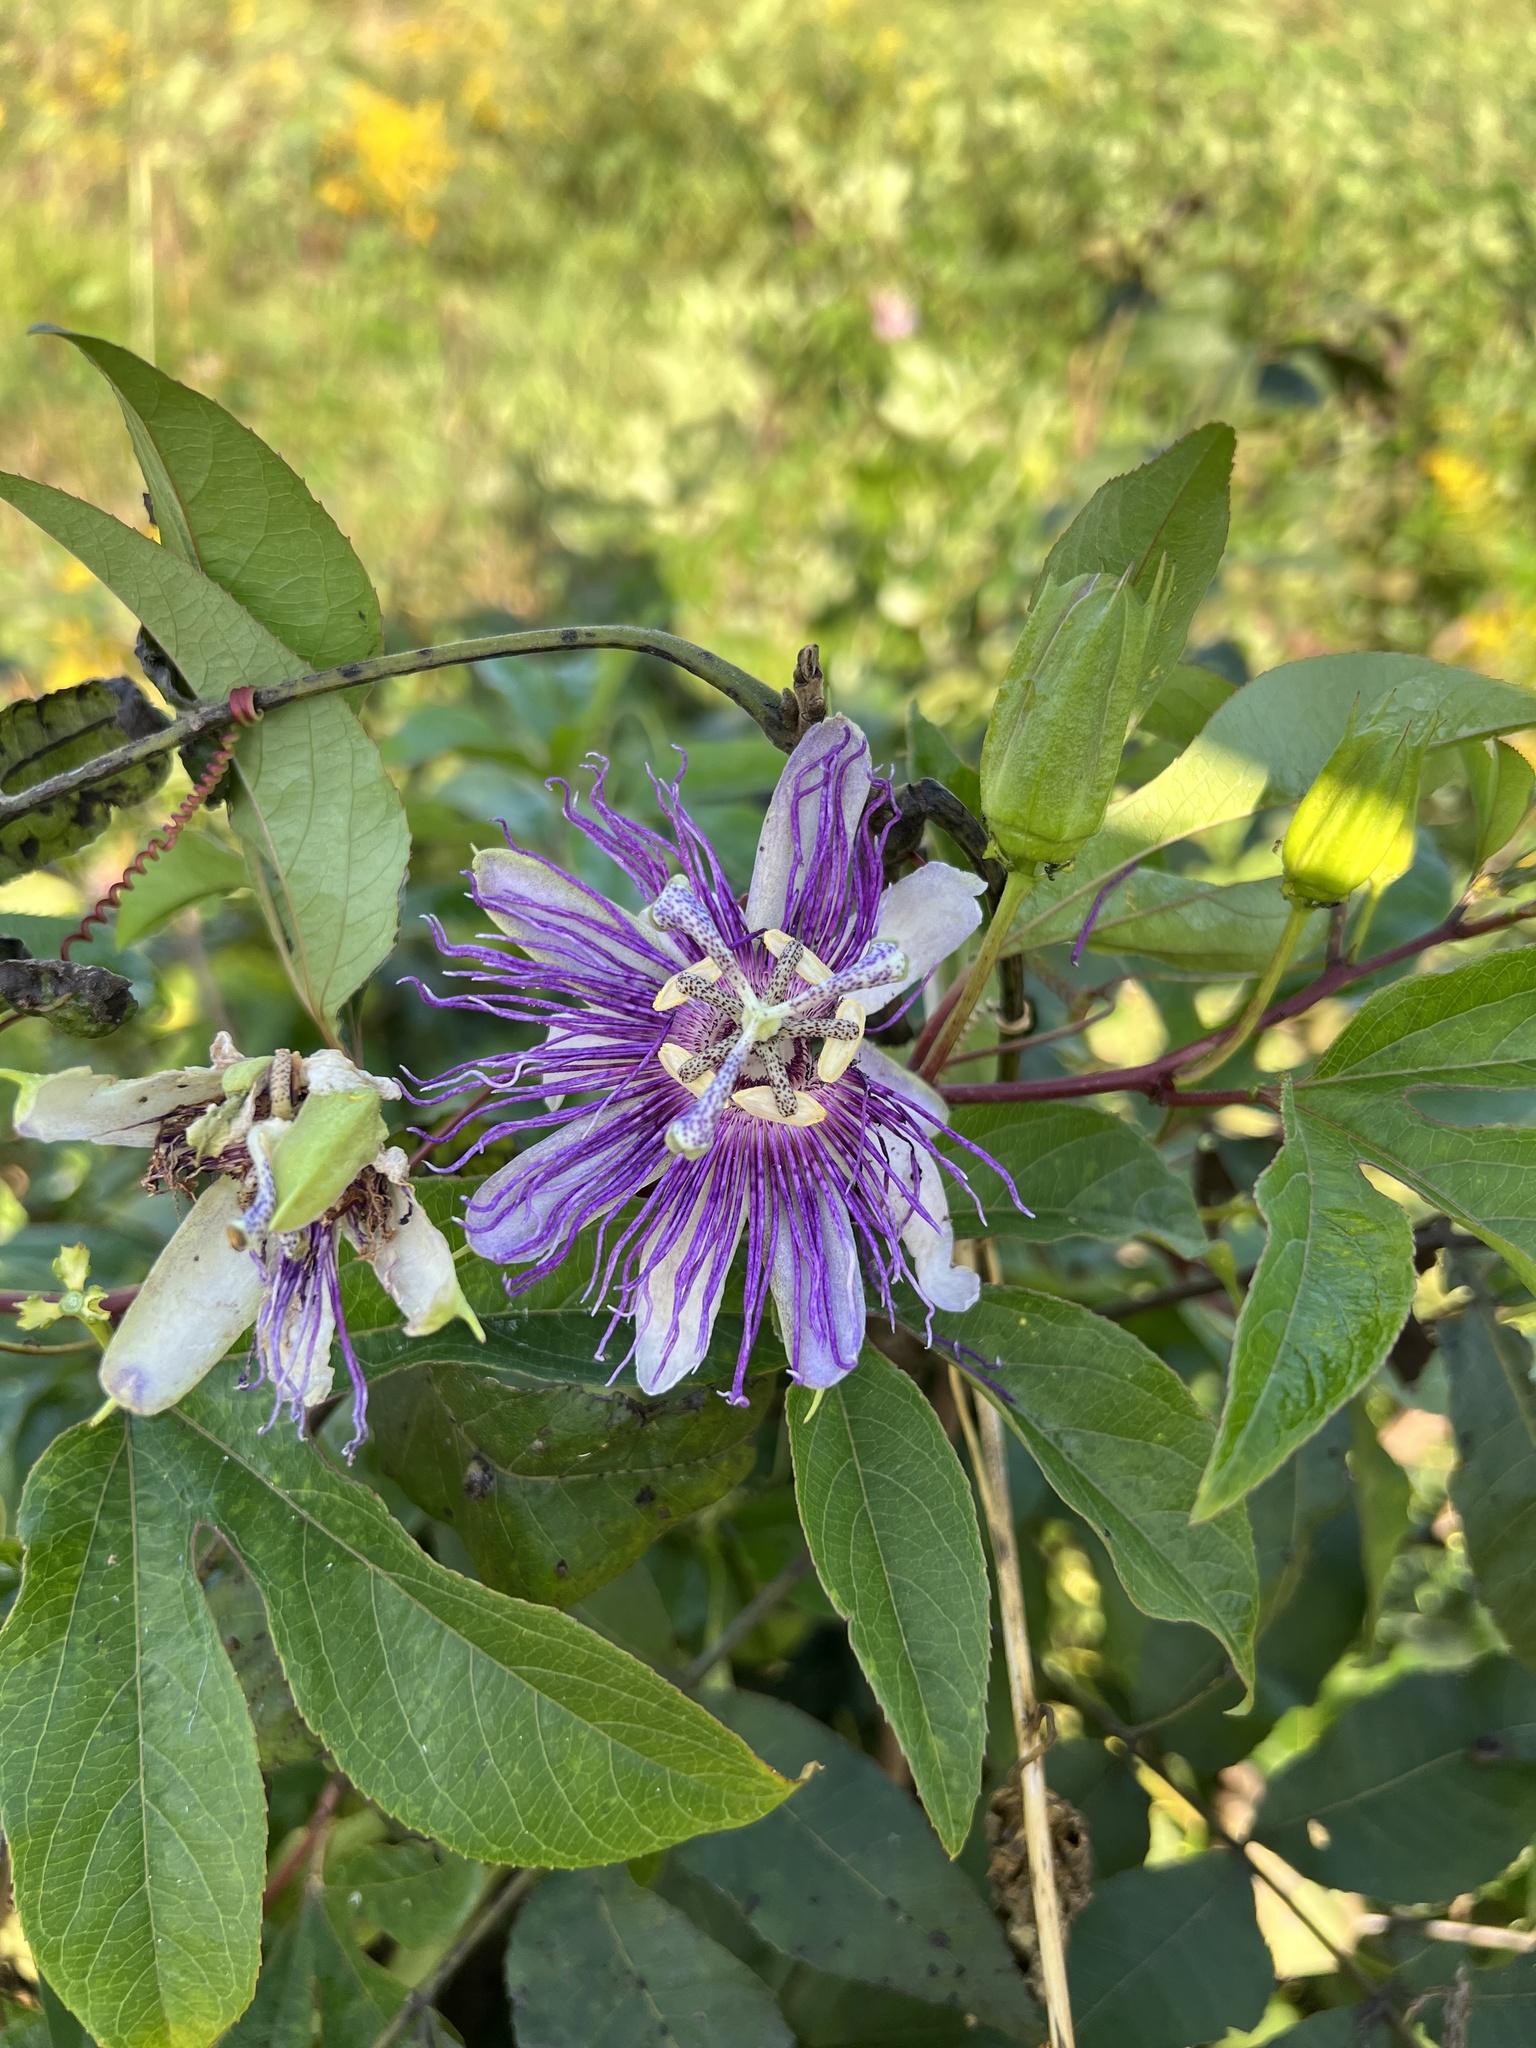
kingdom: Plantae
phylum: Tracheophyta
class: Magnoliopsida
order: Malpighiales
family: Passifloraceae
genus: Passiflora
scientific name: Passiflora incarnata
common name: Apricot-vine
